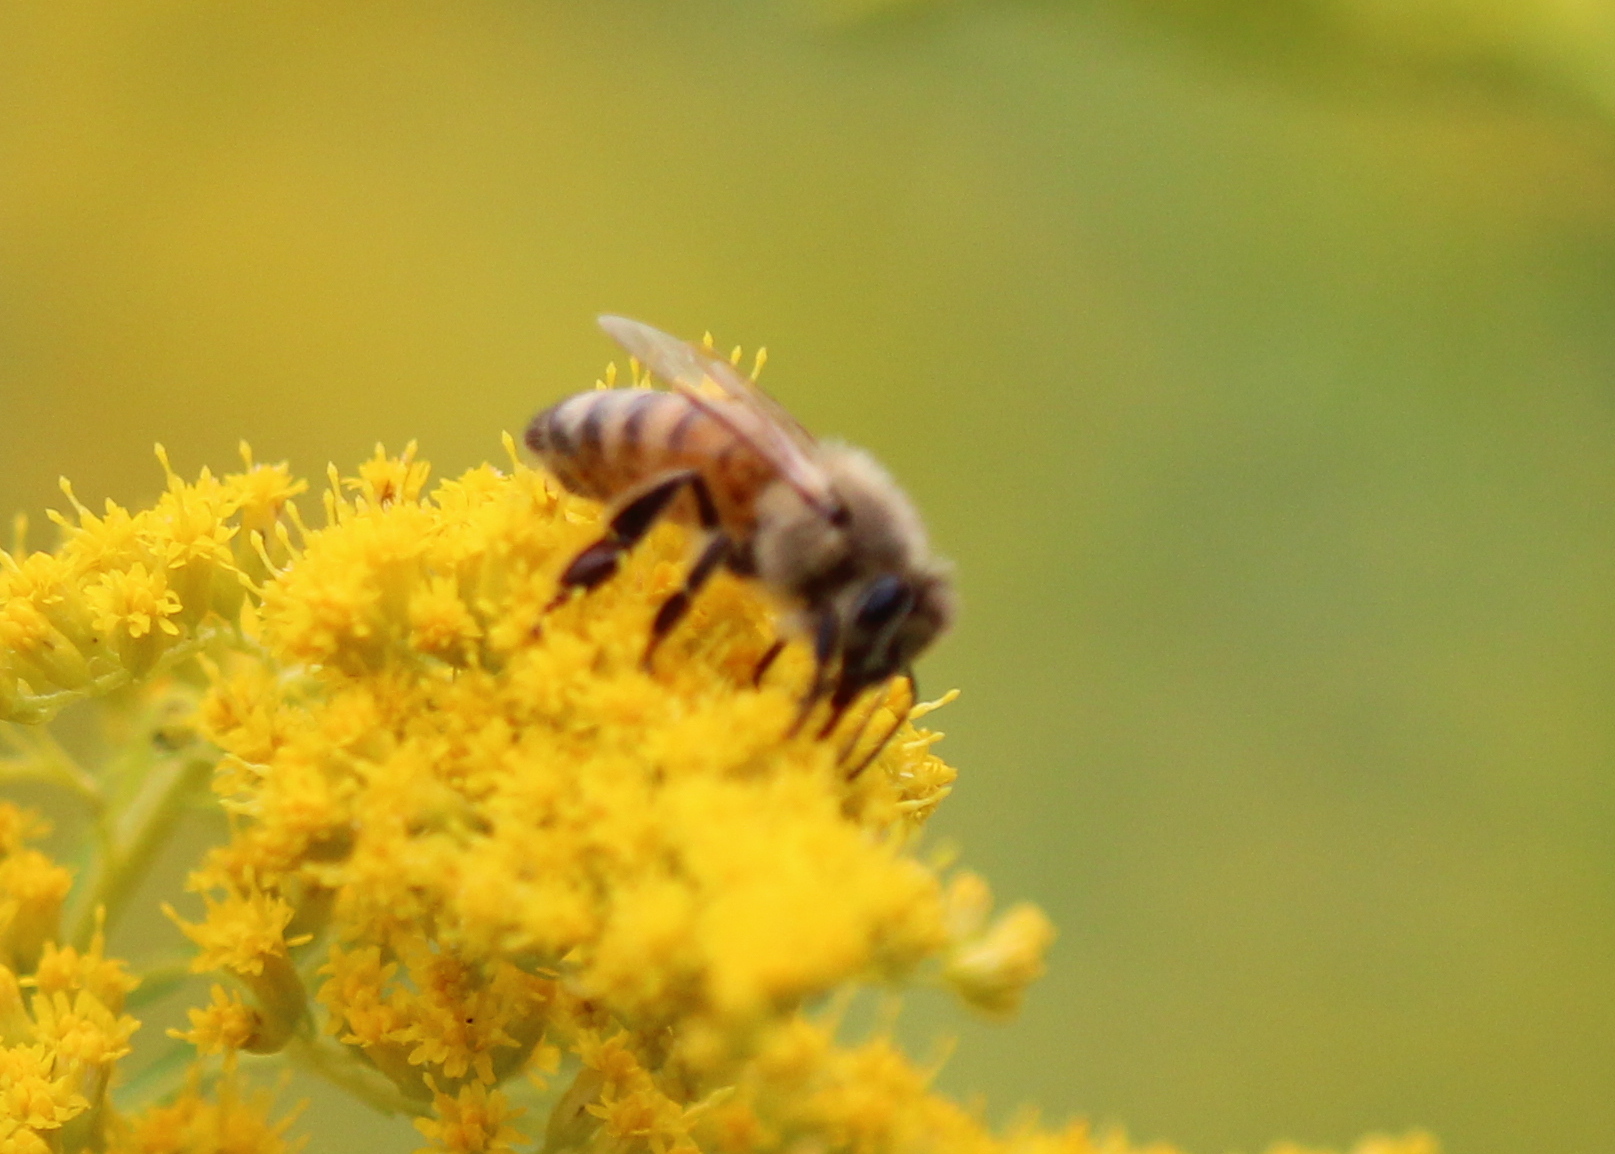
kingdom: Animalia
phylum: Arthropoda
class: Insecta
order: Hymenoptera
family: Apidae
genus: Apis
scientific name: Apis mellifera
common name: Honey bee
